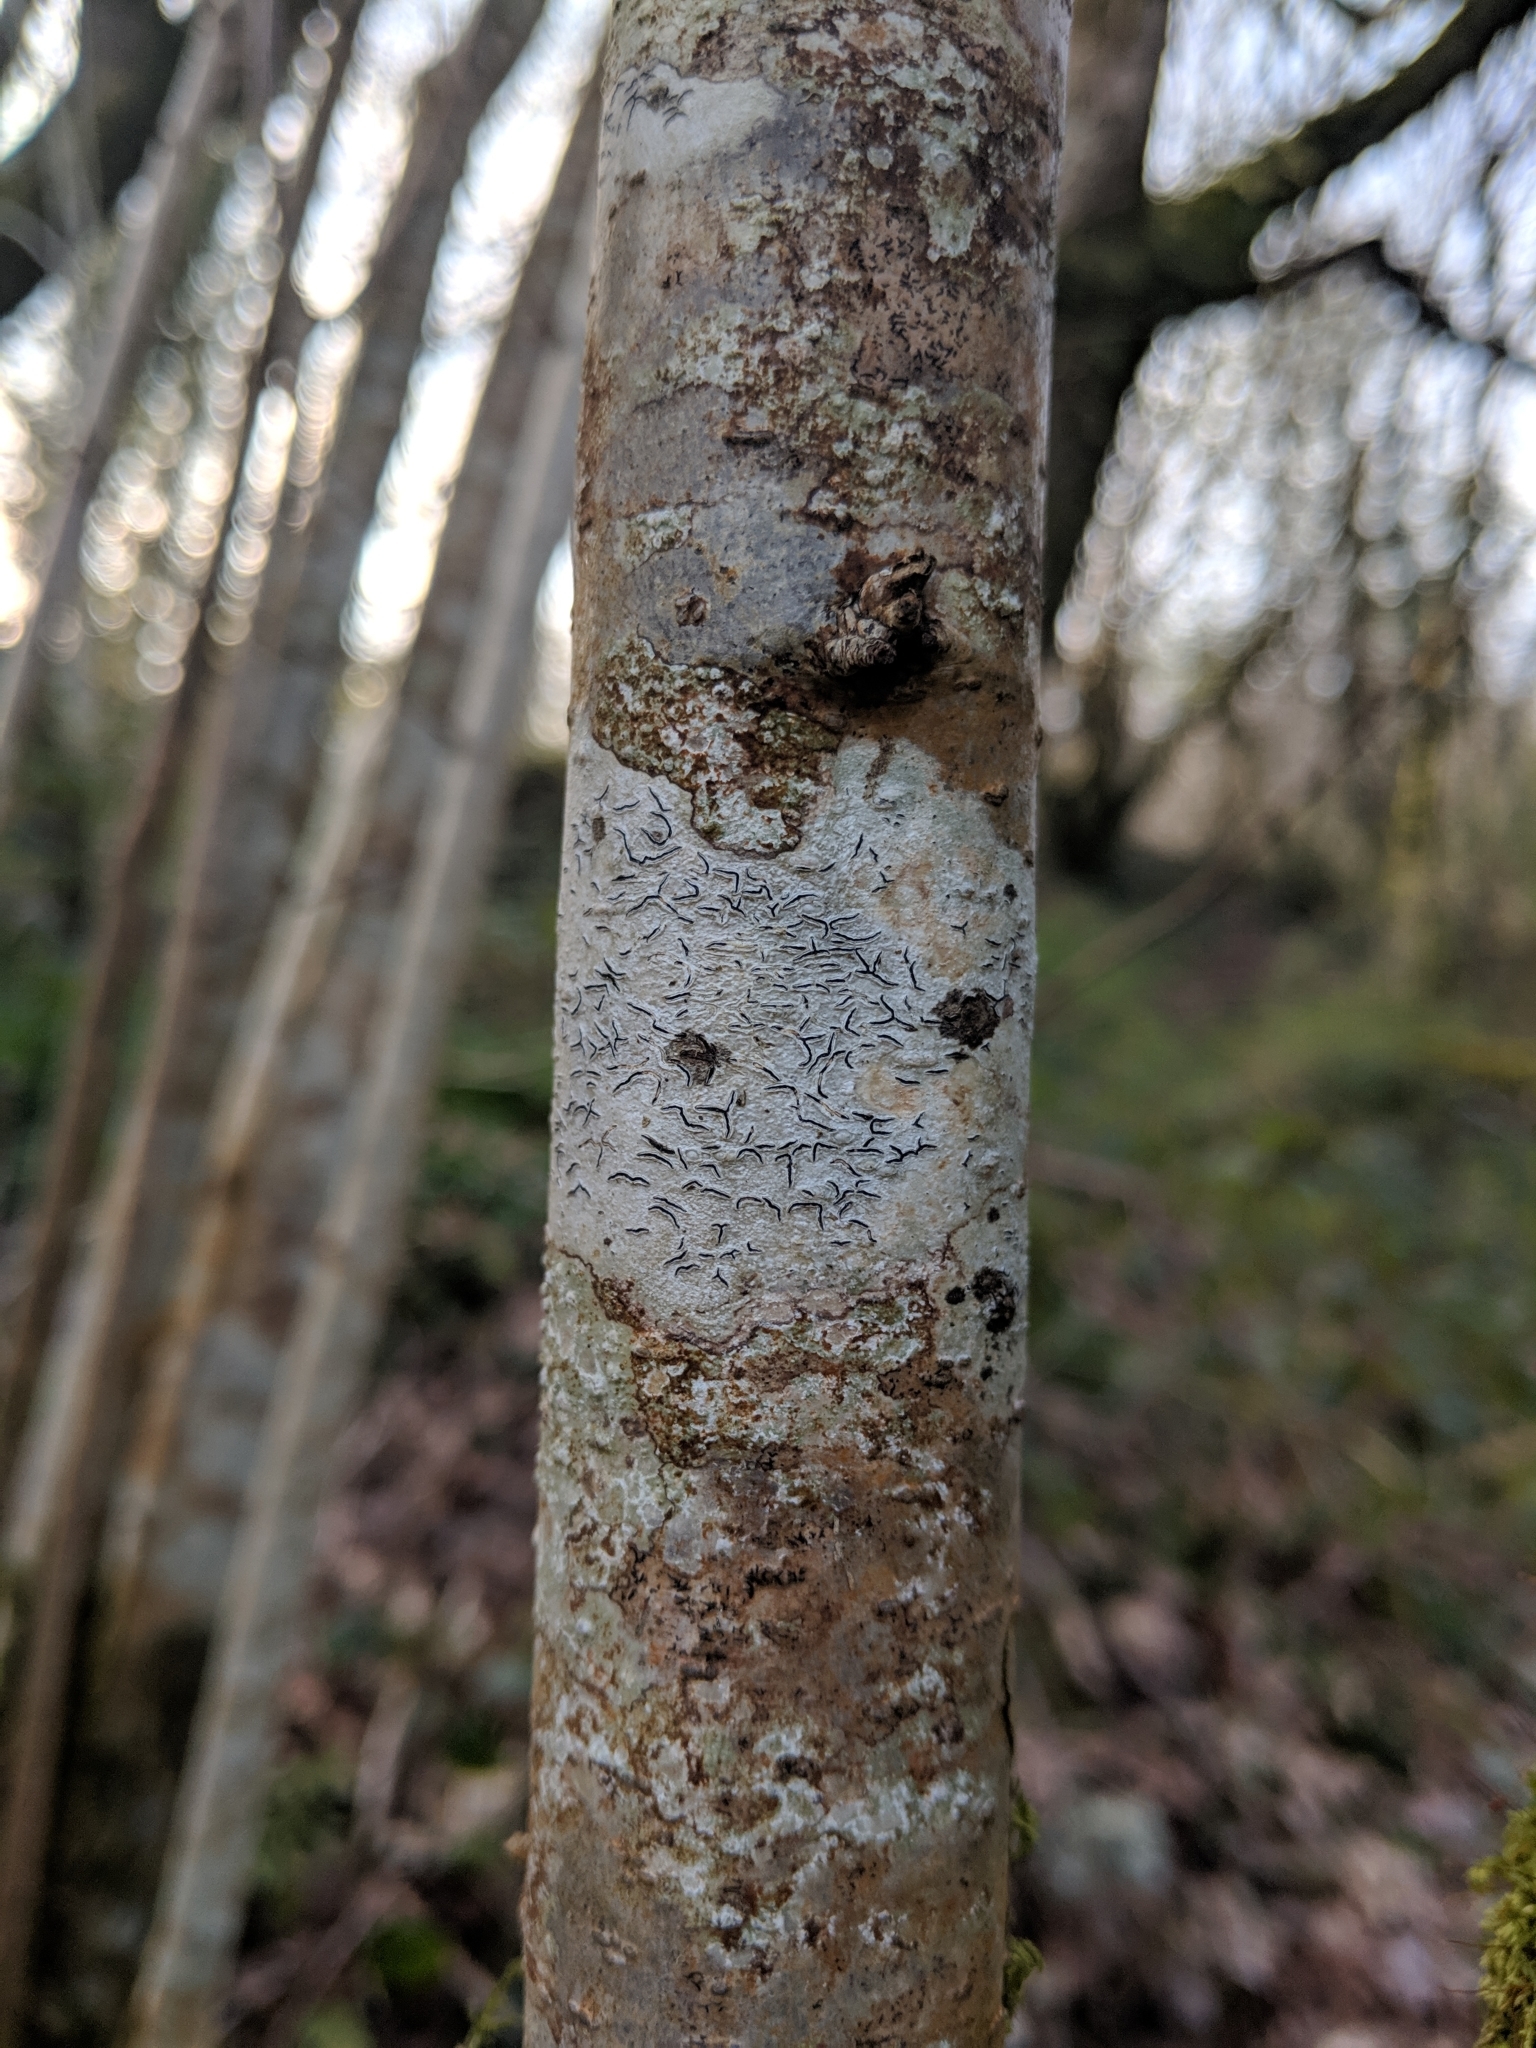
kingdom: Fungi
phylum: Ascomycota
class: Lecanoromycetes
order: Ostropales
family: Graphidaceae
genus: Graphis
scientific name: Graphis scripta
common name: Script lichen
